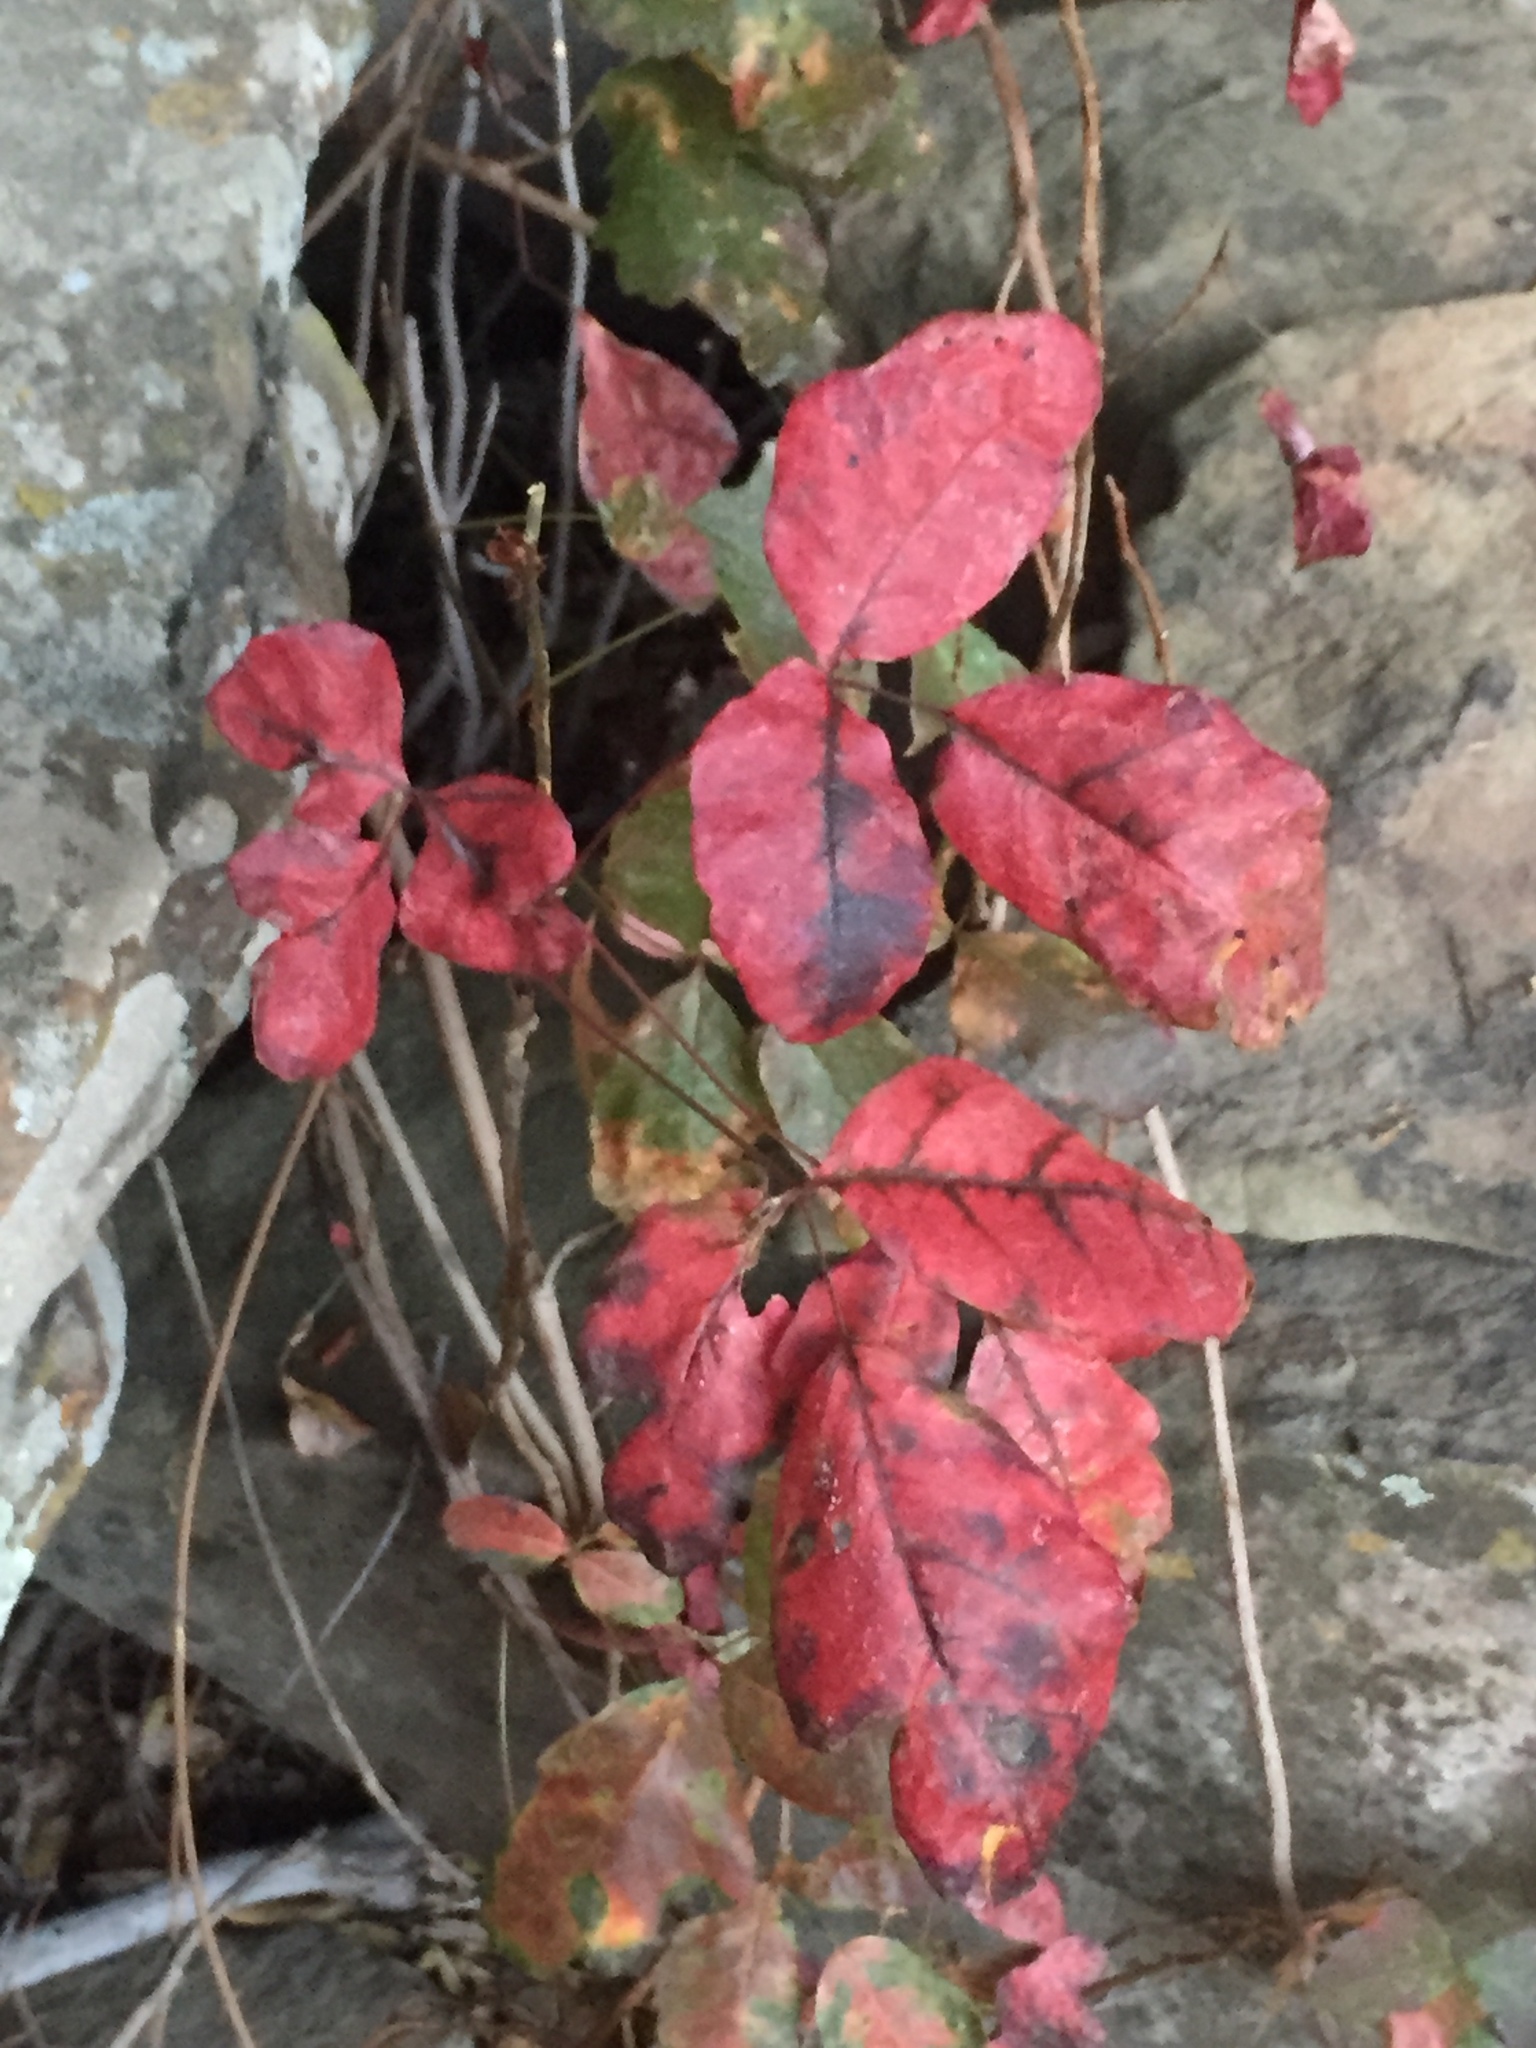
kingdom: Plantae
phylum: Tracheophyta
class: Magnoliopsida
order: Sapindales
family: Anacardiaceae
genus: Toxicodendron
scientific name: Toxicodendron diversilobum
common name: Pacific poison-oak
